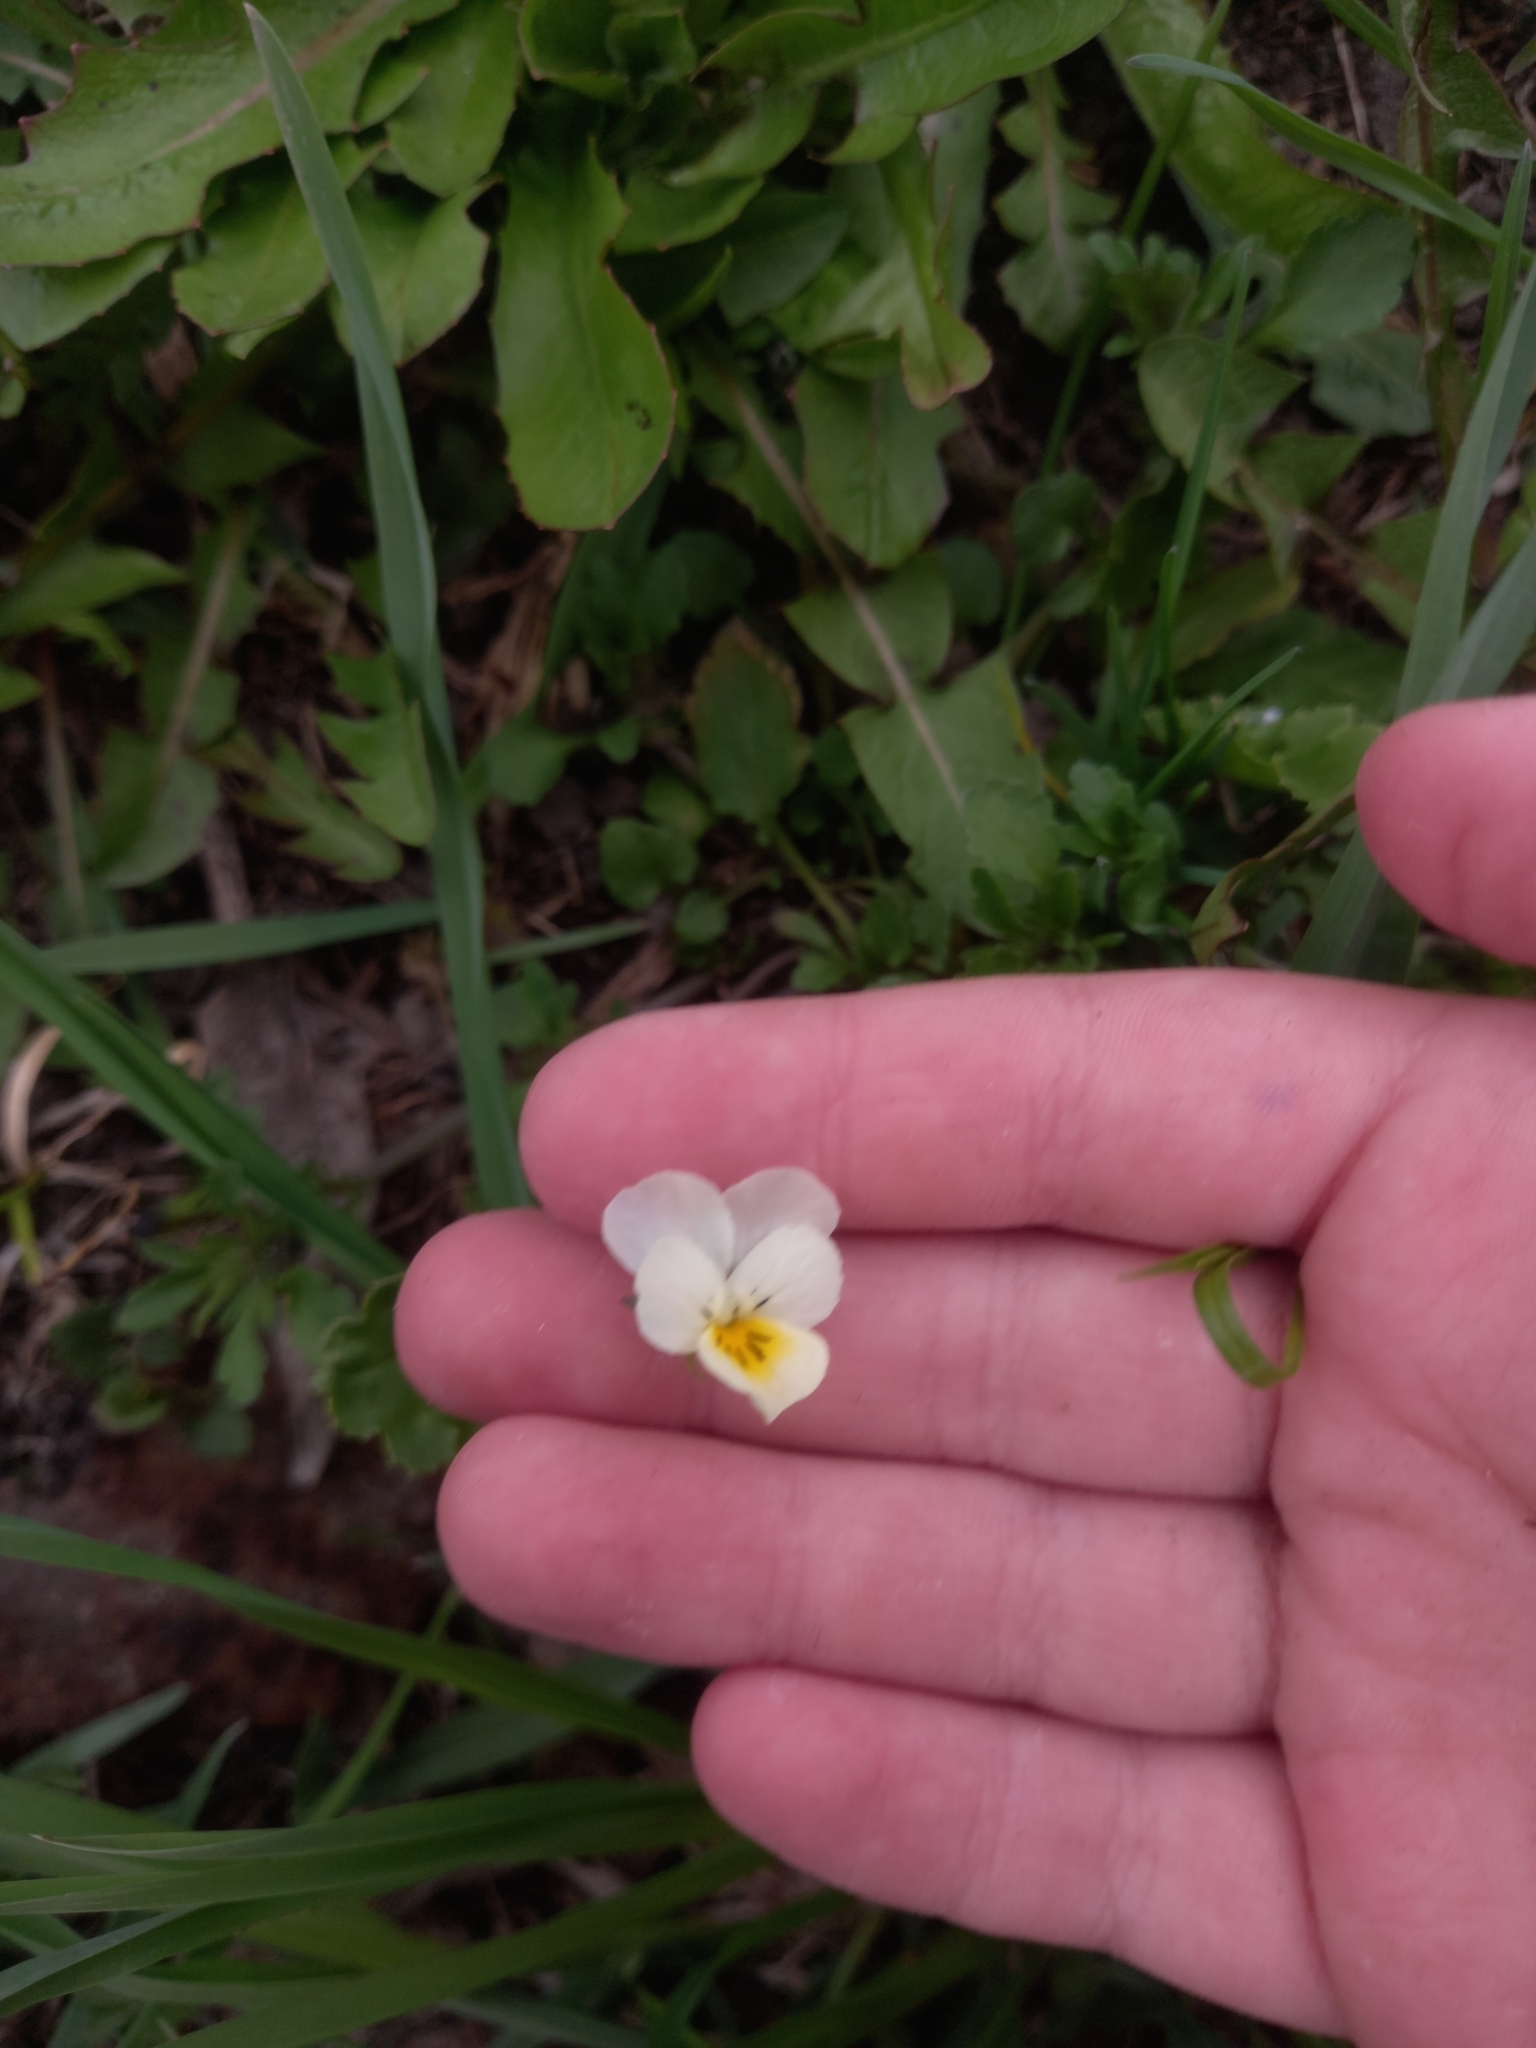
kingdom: Plantae
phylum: Tracheophyta
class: Magnoliopsida
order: Malpighiales
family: Violaceae
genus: Viola
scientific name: Viola arvensis
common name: Field pansy
